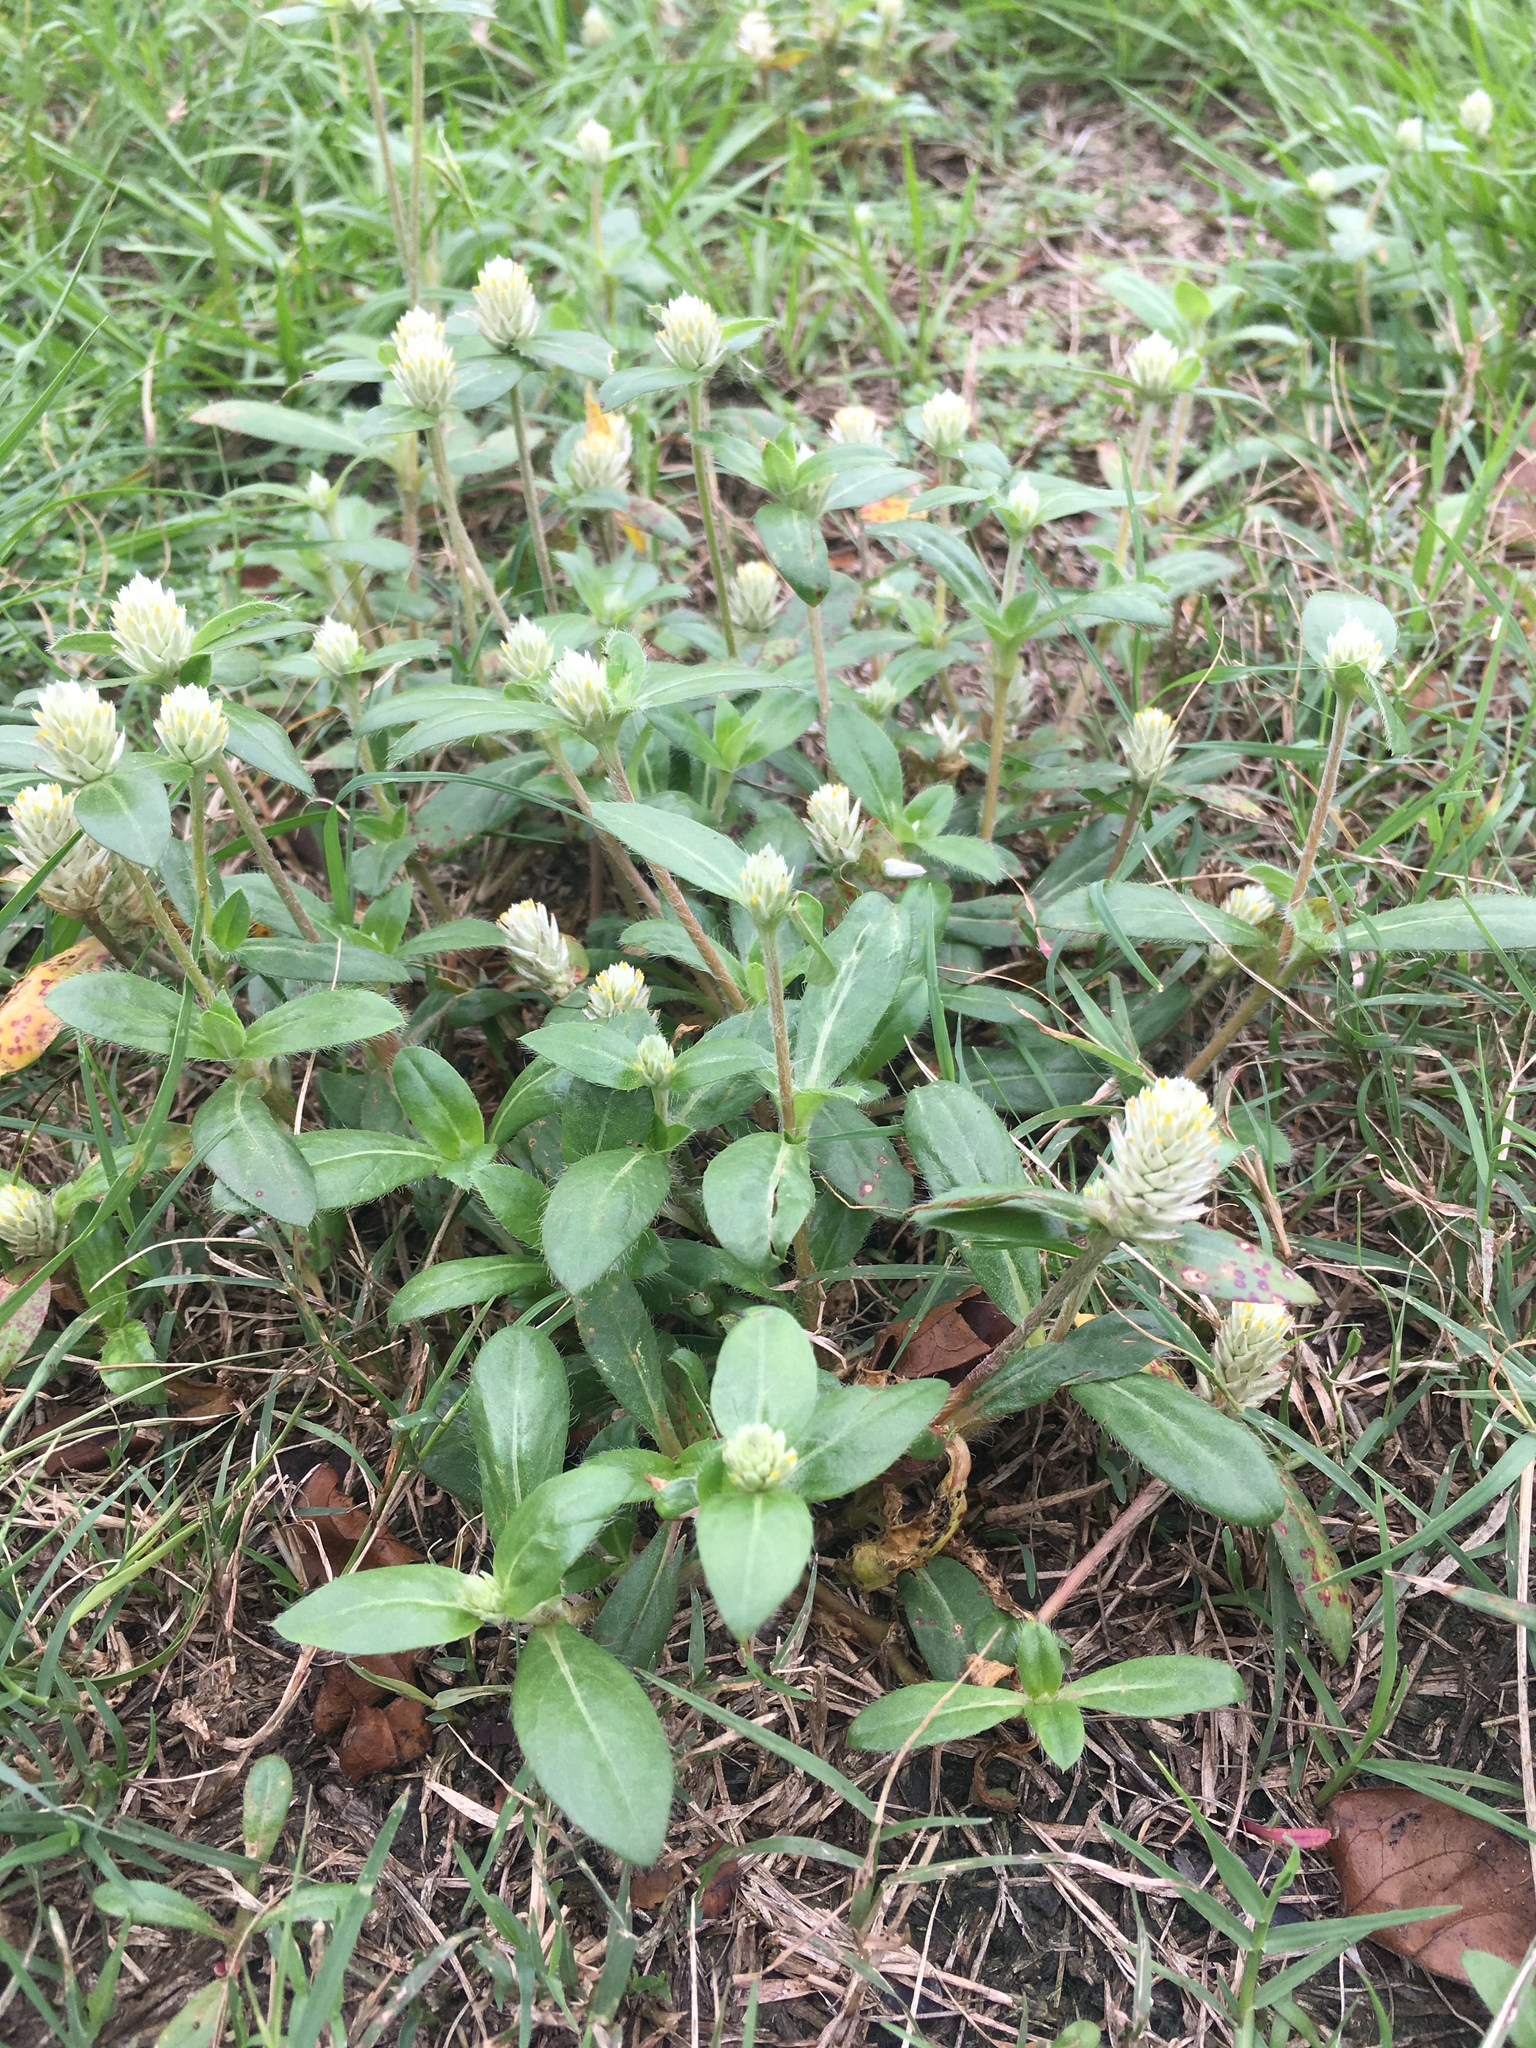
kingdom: Plantae
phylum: Tracheophyta
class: Magnoliopsida
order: Caryophyllales
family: Amaranthaceae
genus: Gomphrena
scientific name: Gomphrena celosioides
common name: Gomphrena-weed
